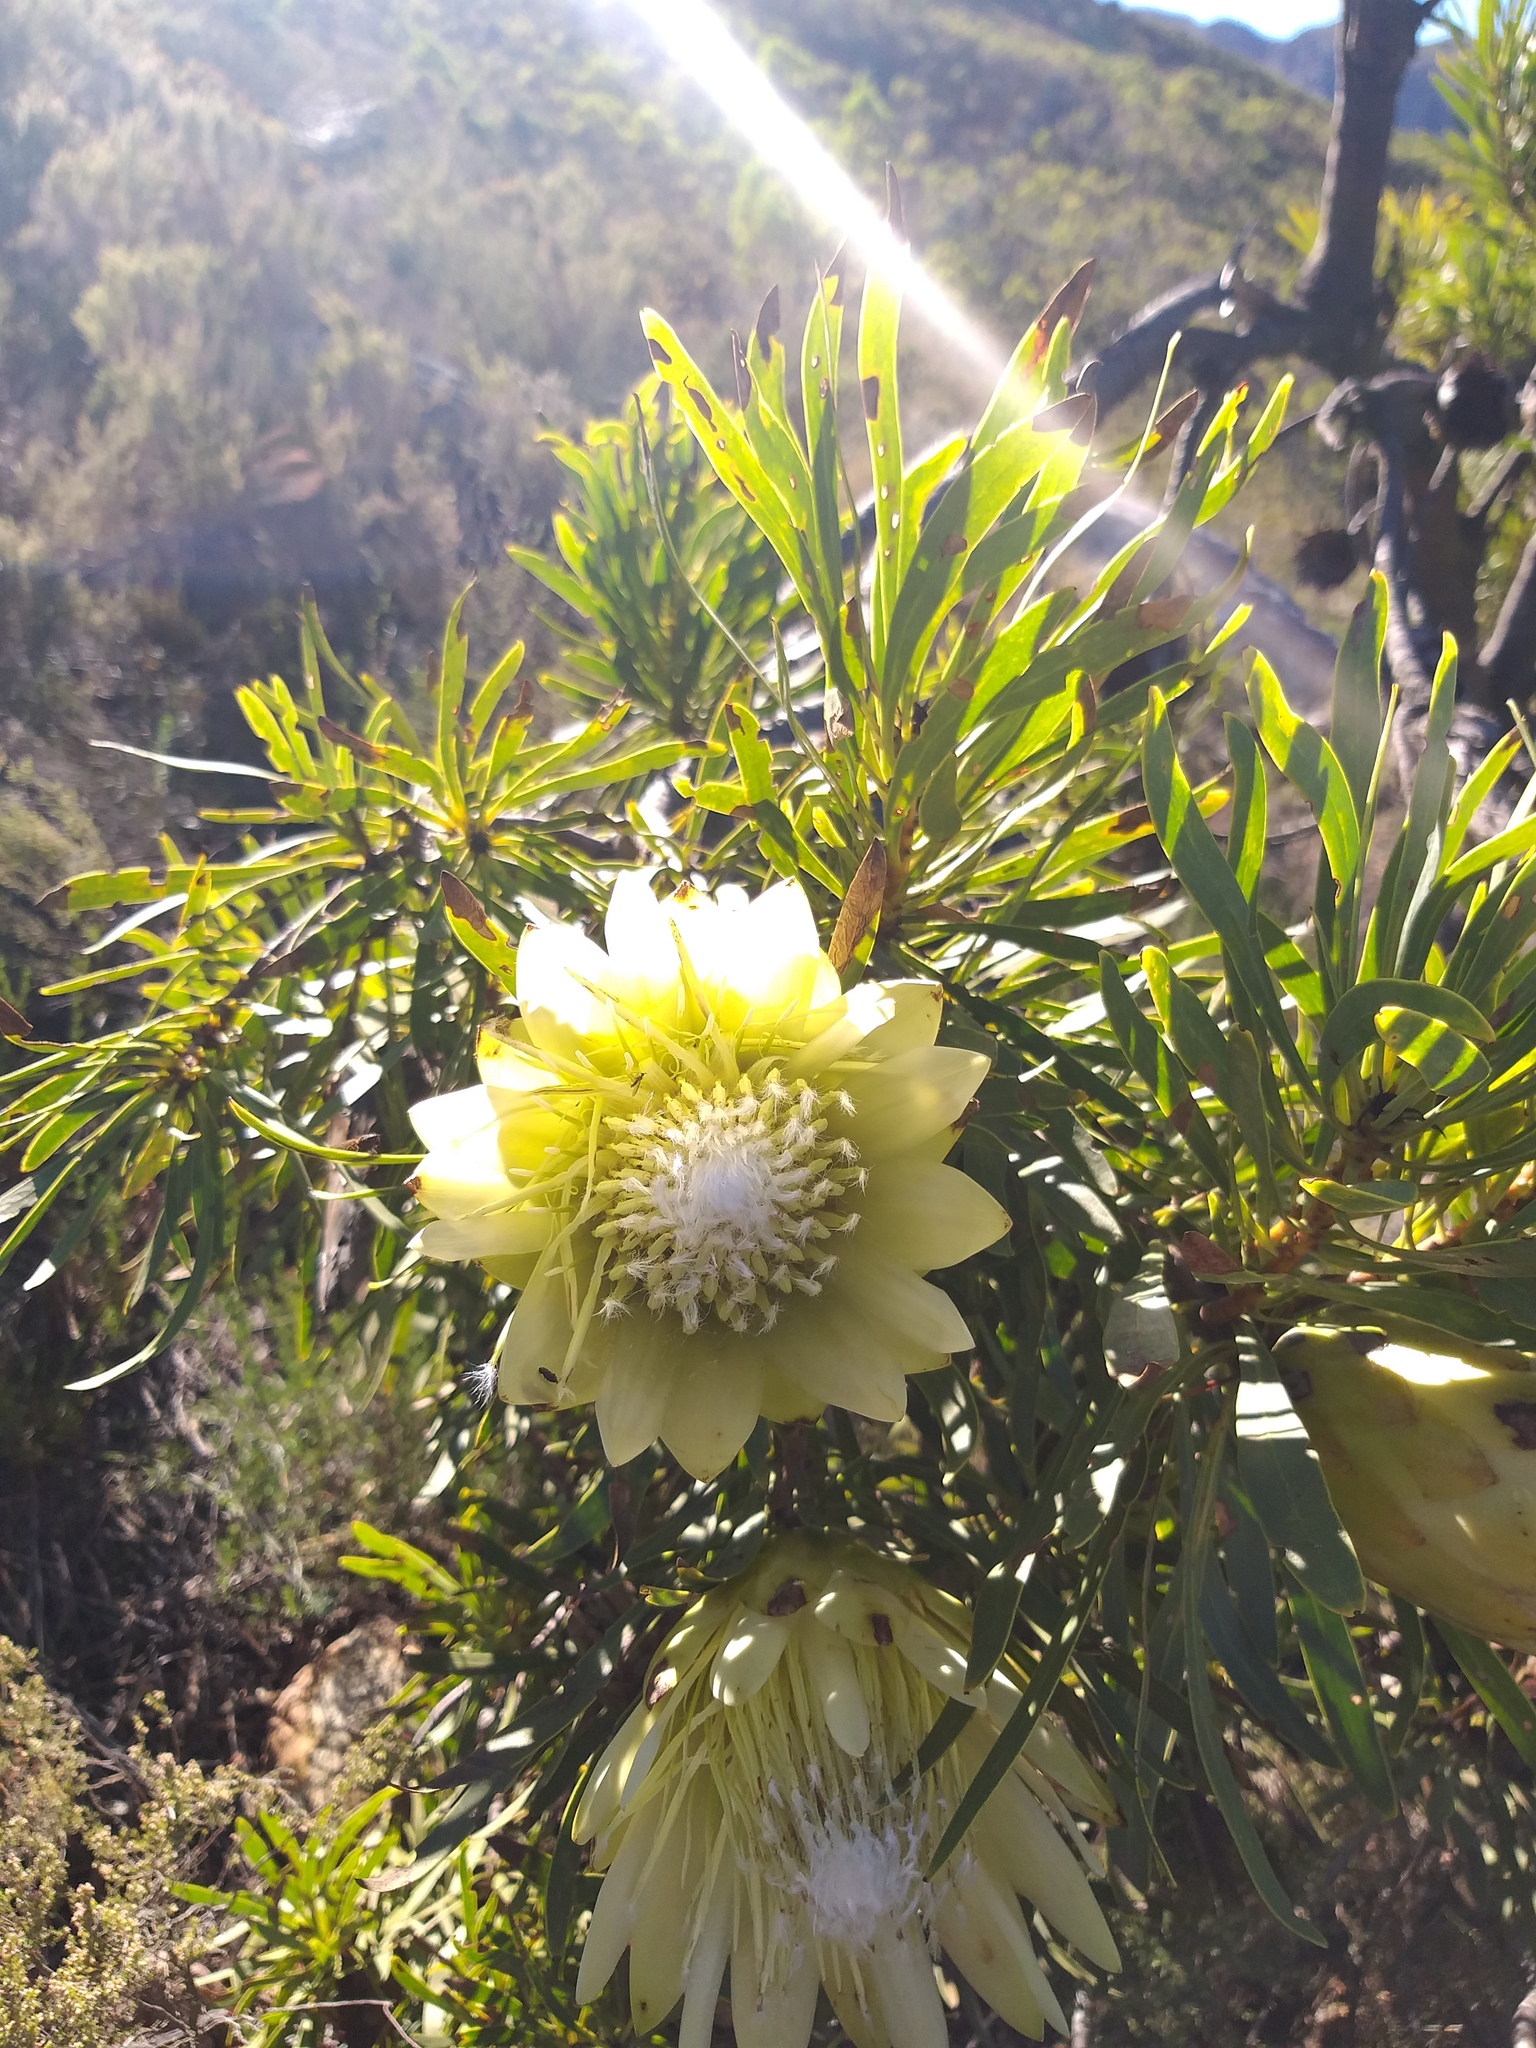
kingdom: Plantae
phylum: Tracheophyta
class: Magnoliopsida
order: Proteales
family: Proteaceae
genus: Protea
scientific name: Protea repens
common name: Sugarbush
